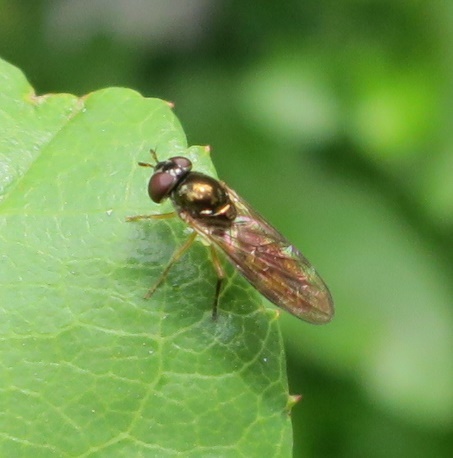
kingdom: Animalia
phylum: Arthropoda
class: Insecta
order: Diptera
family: Syrphidae
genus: Melanostoma
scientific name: Melanostoma fasciatum
